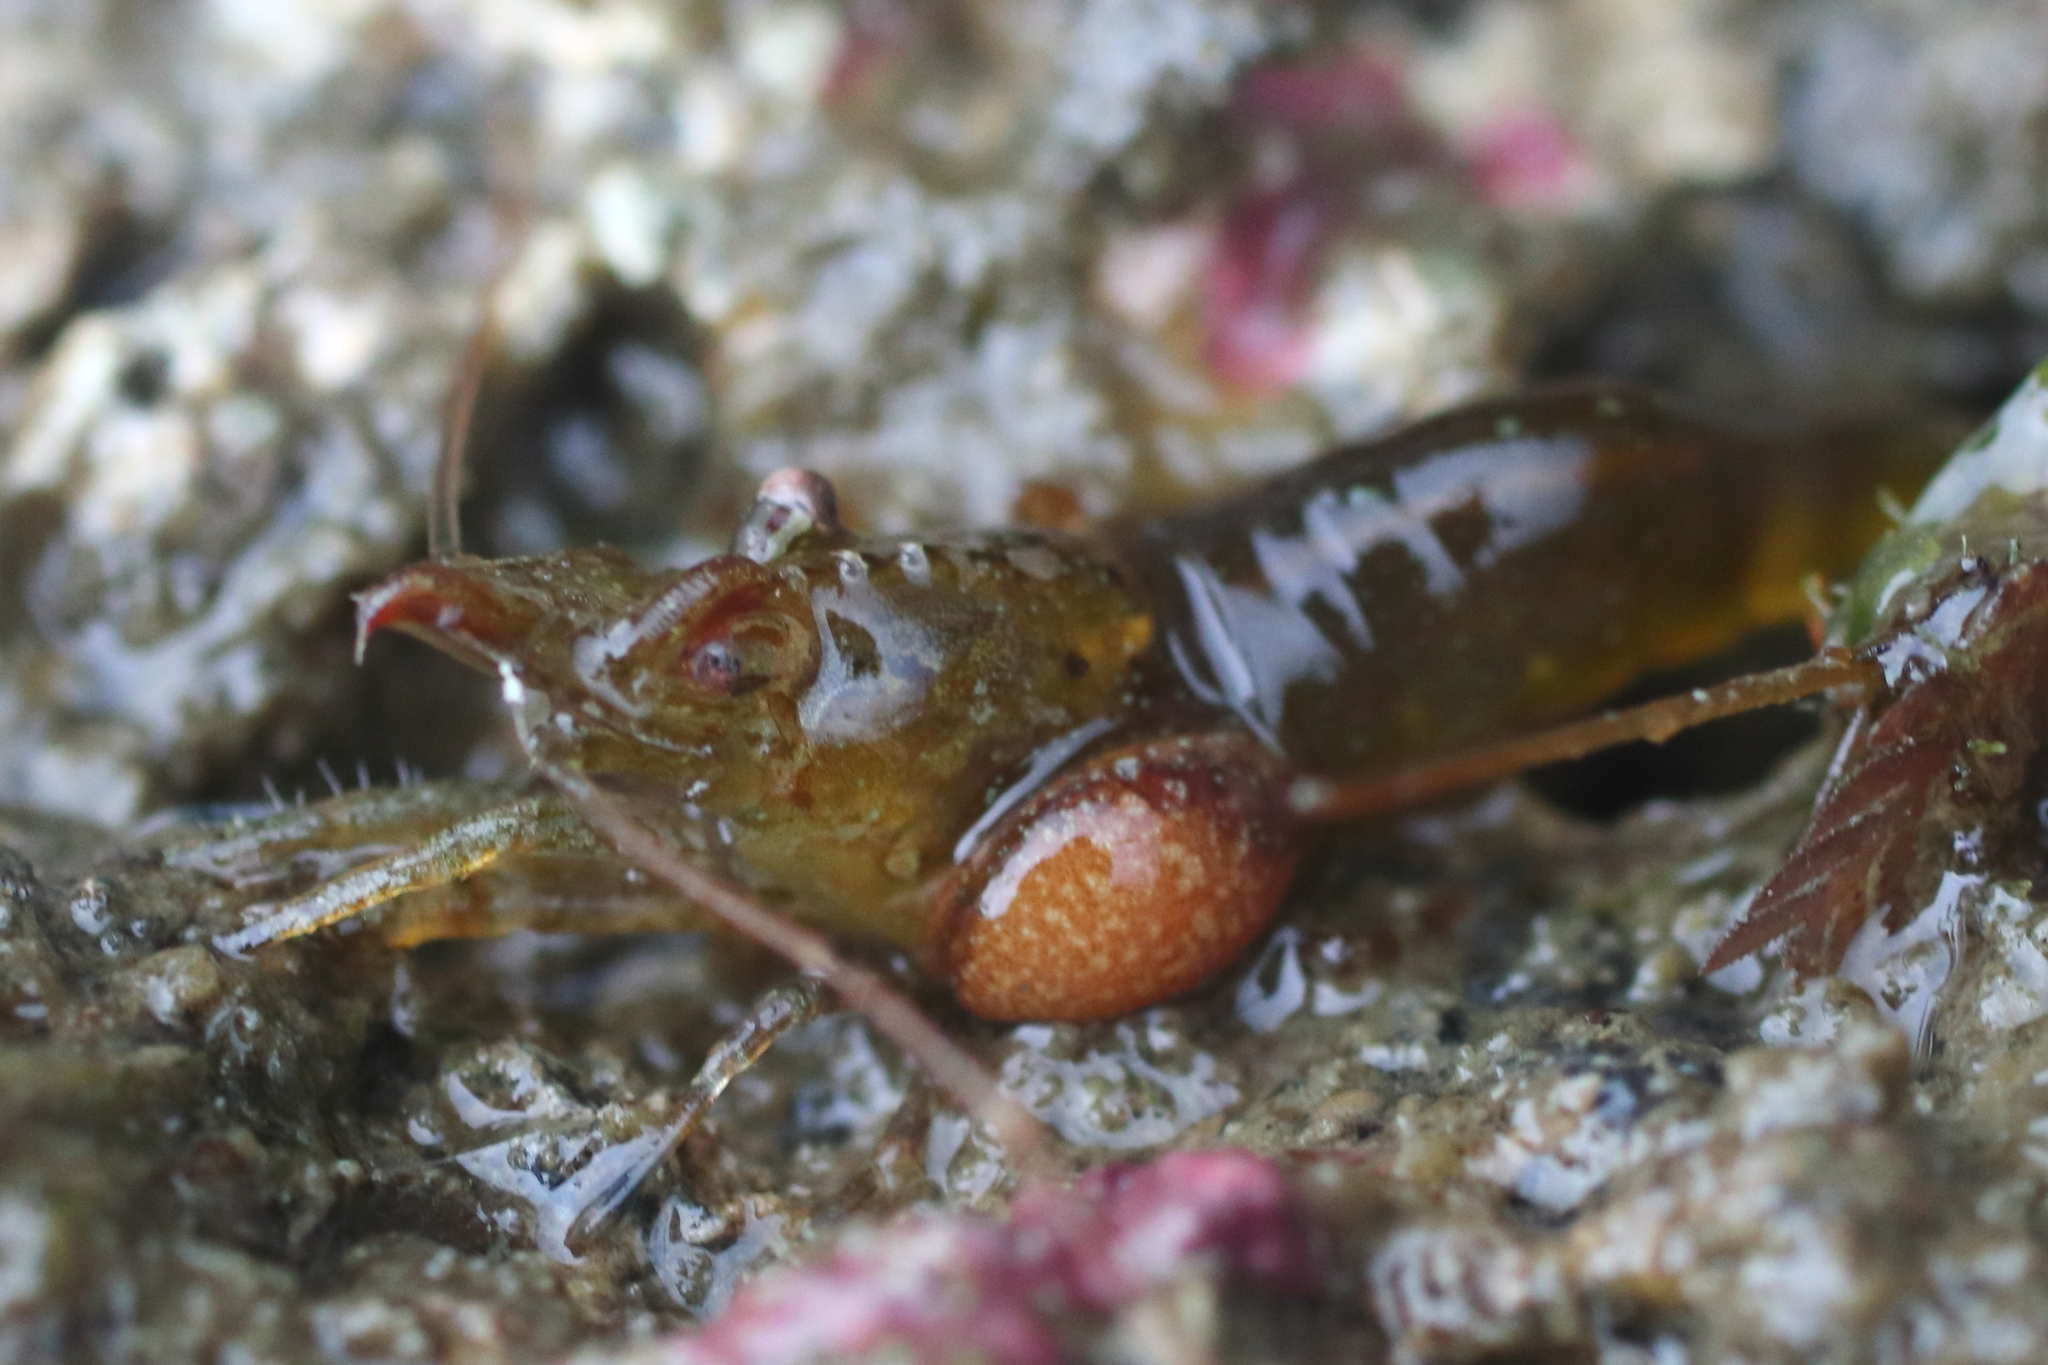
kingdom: Animalia
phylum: Arthropoda
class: Malacostraca
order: Isopoda
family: Bopyridae
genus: Bopyroides
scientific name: Bopyroides hippolytes
